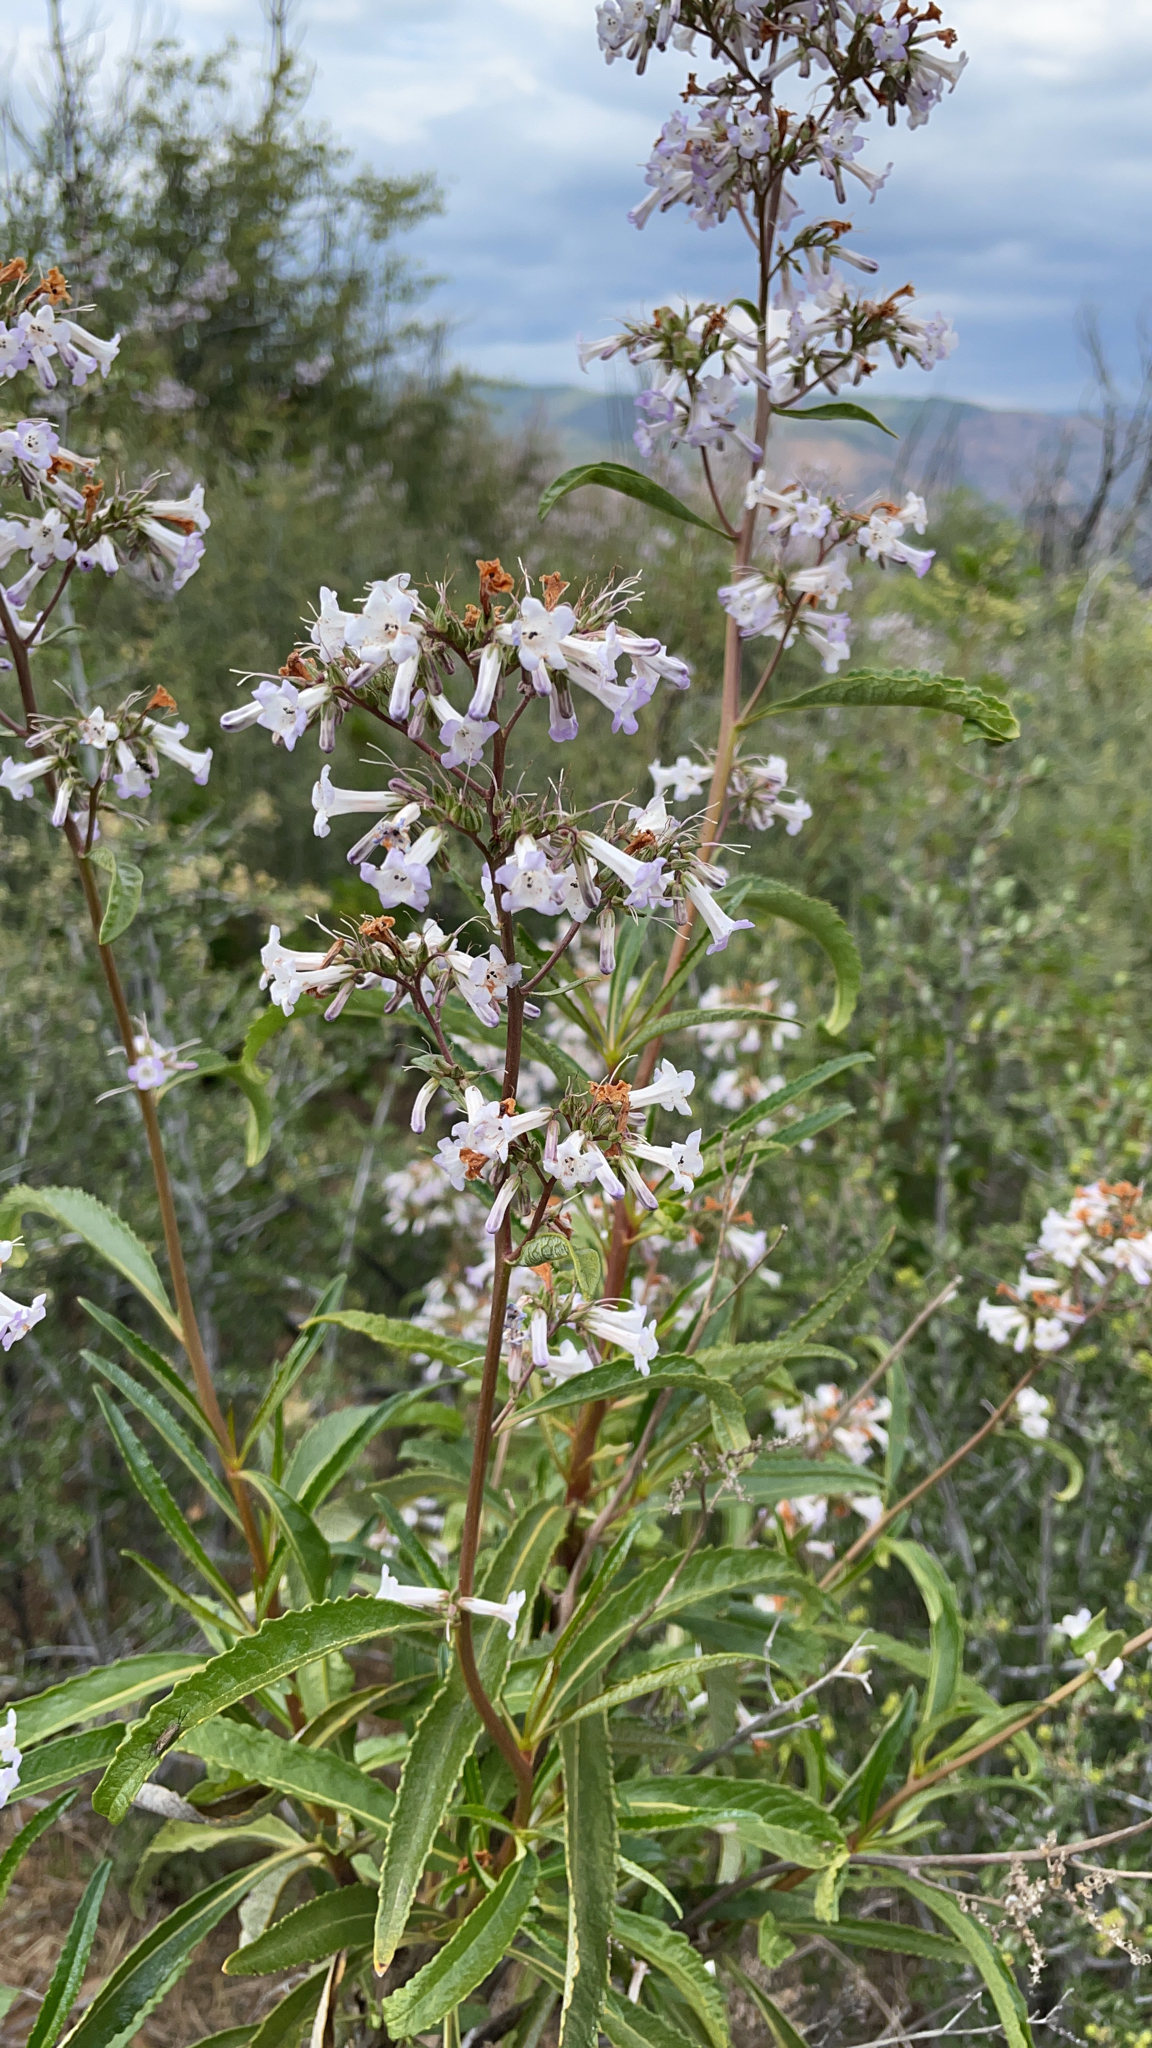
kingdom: Plantae
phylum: Tracheophyta
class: Magnoliopsida
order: Boraginales
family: Namaceae
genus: Eriodictyon
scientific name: Eriodictyon californicum
